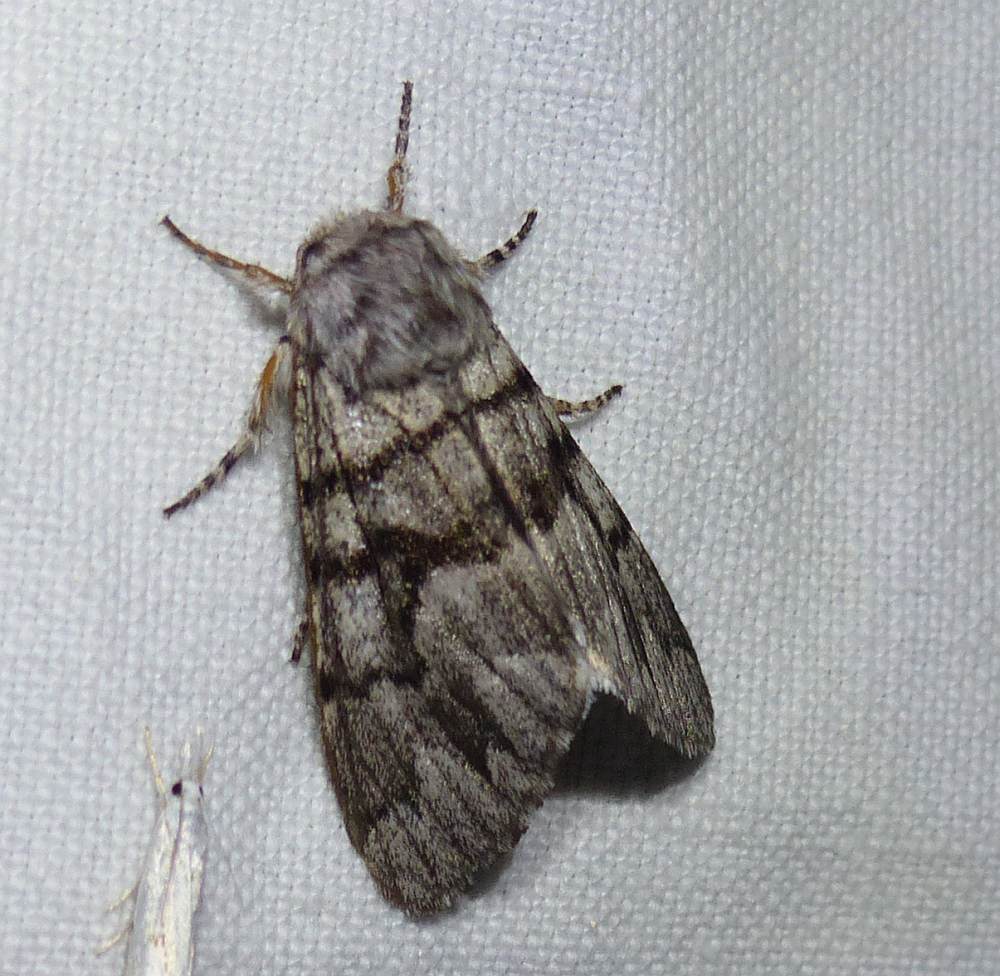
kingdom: Animalia
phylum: Arthropoda
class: Insecta
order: Lepidoptera
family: Noctuidae
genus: Panthea
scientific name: Panthea furcilla
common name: Eastern panthea moth
